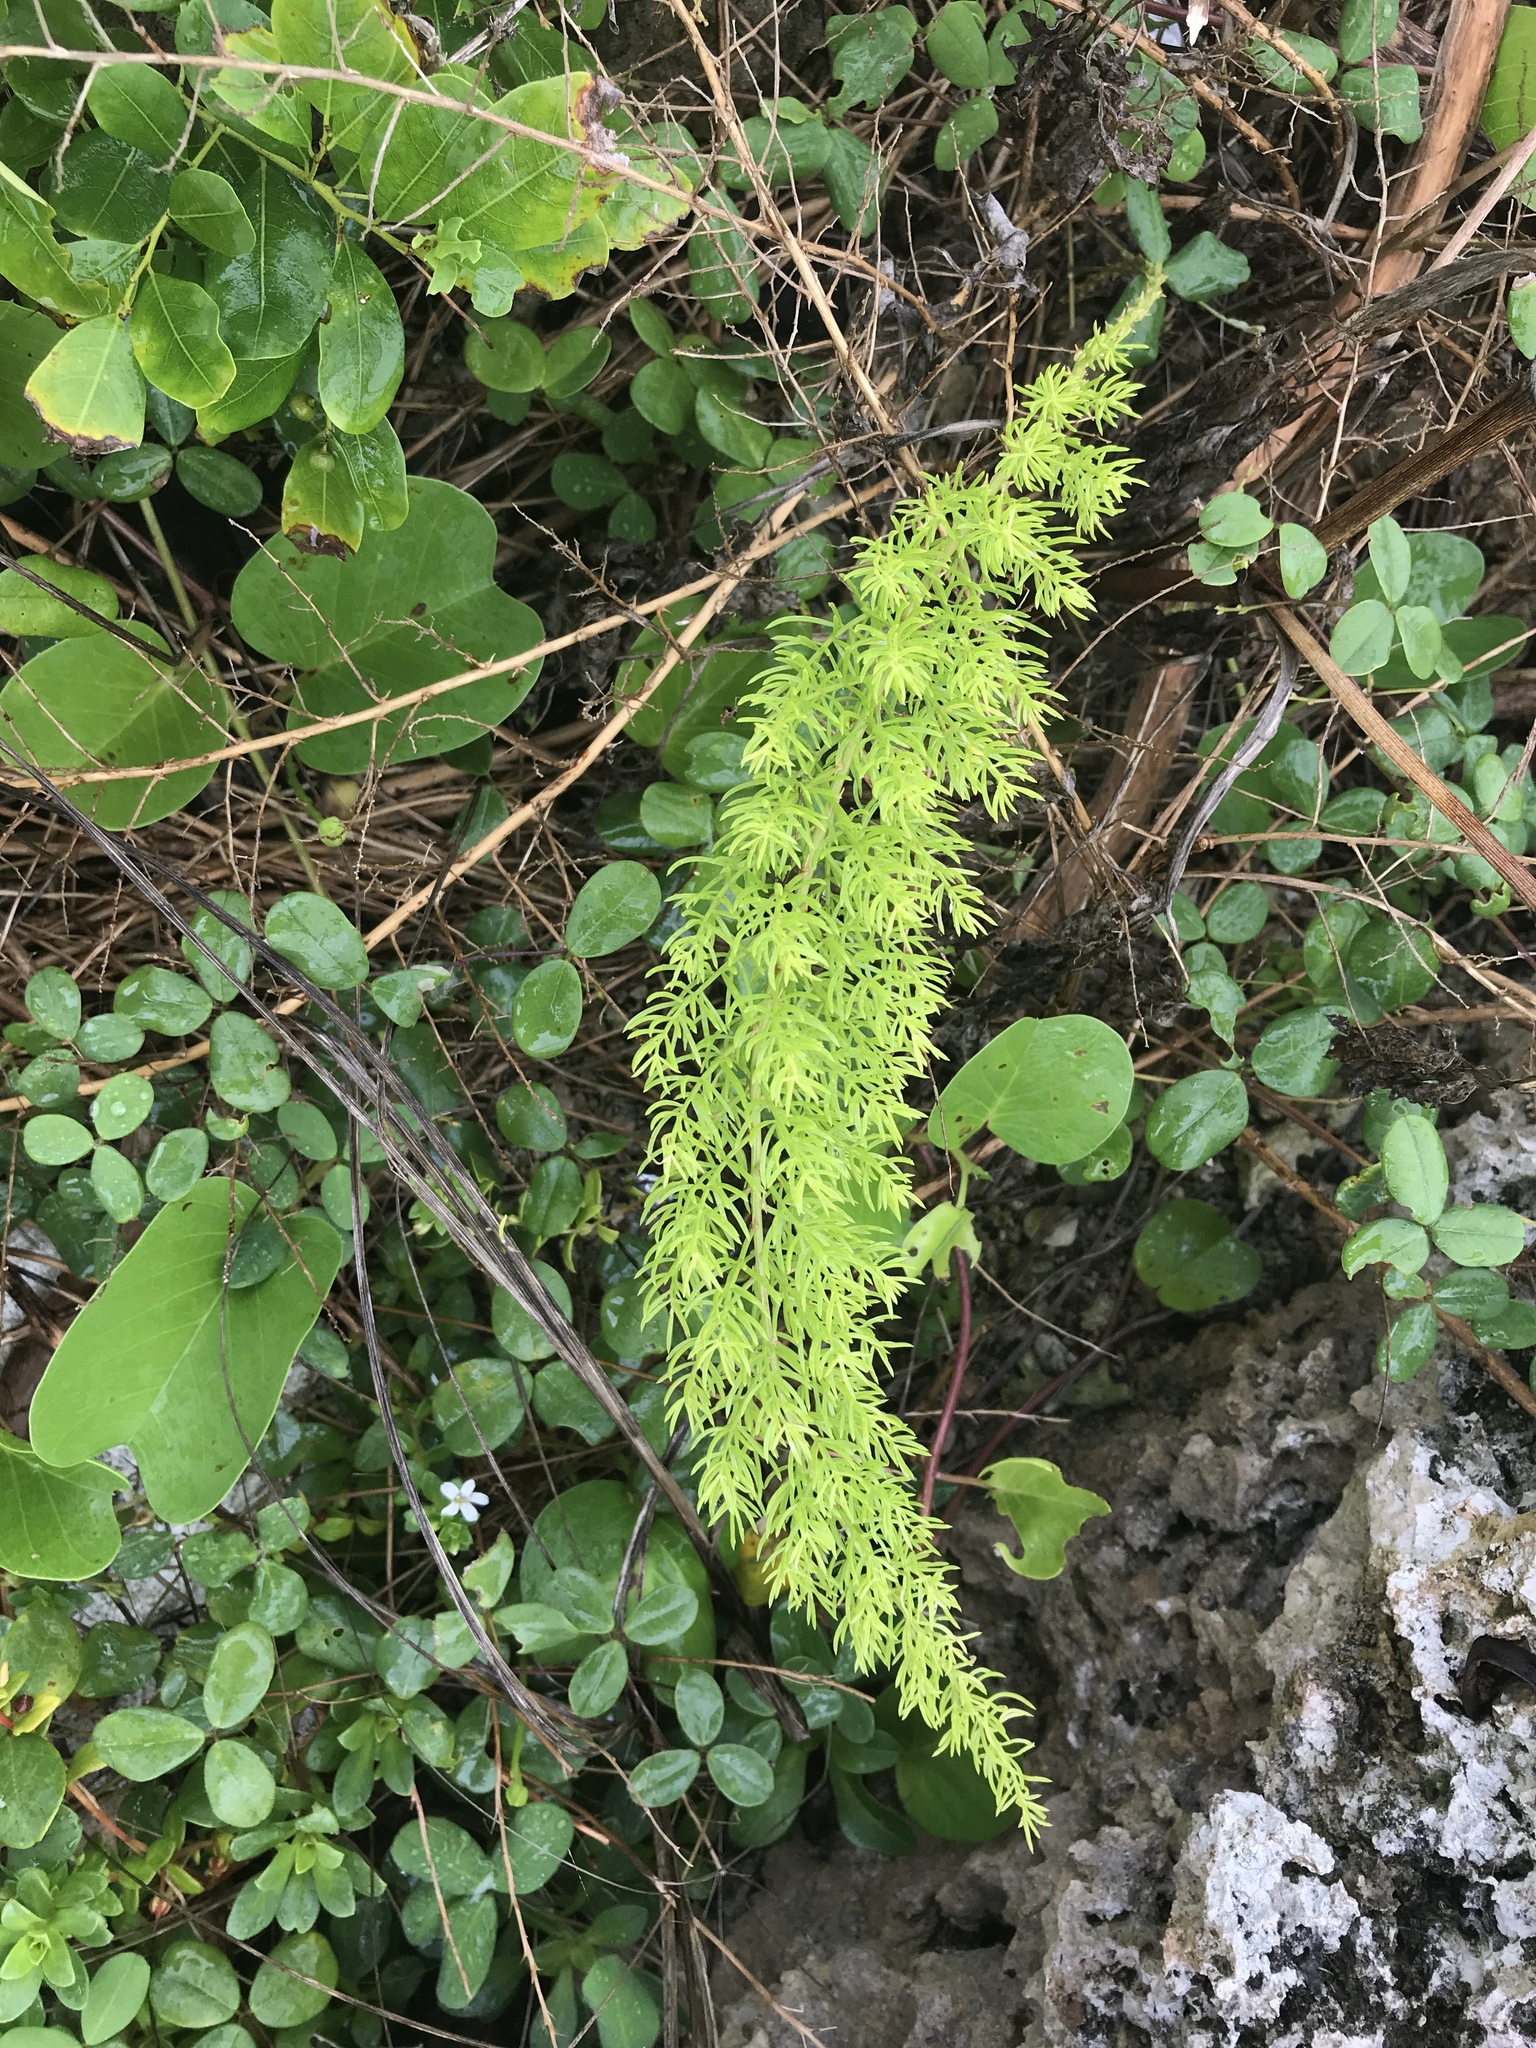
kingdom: Plantae
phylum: Tracheophyta
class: Liliopsida
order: Asparagales
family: Asparagaceae
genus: Asparagus
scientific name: Asparagus cochinchinensis
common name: Chinese asparagus
